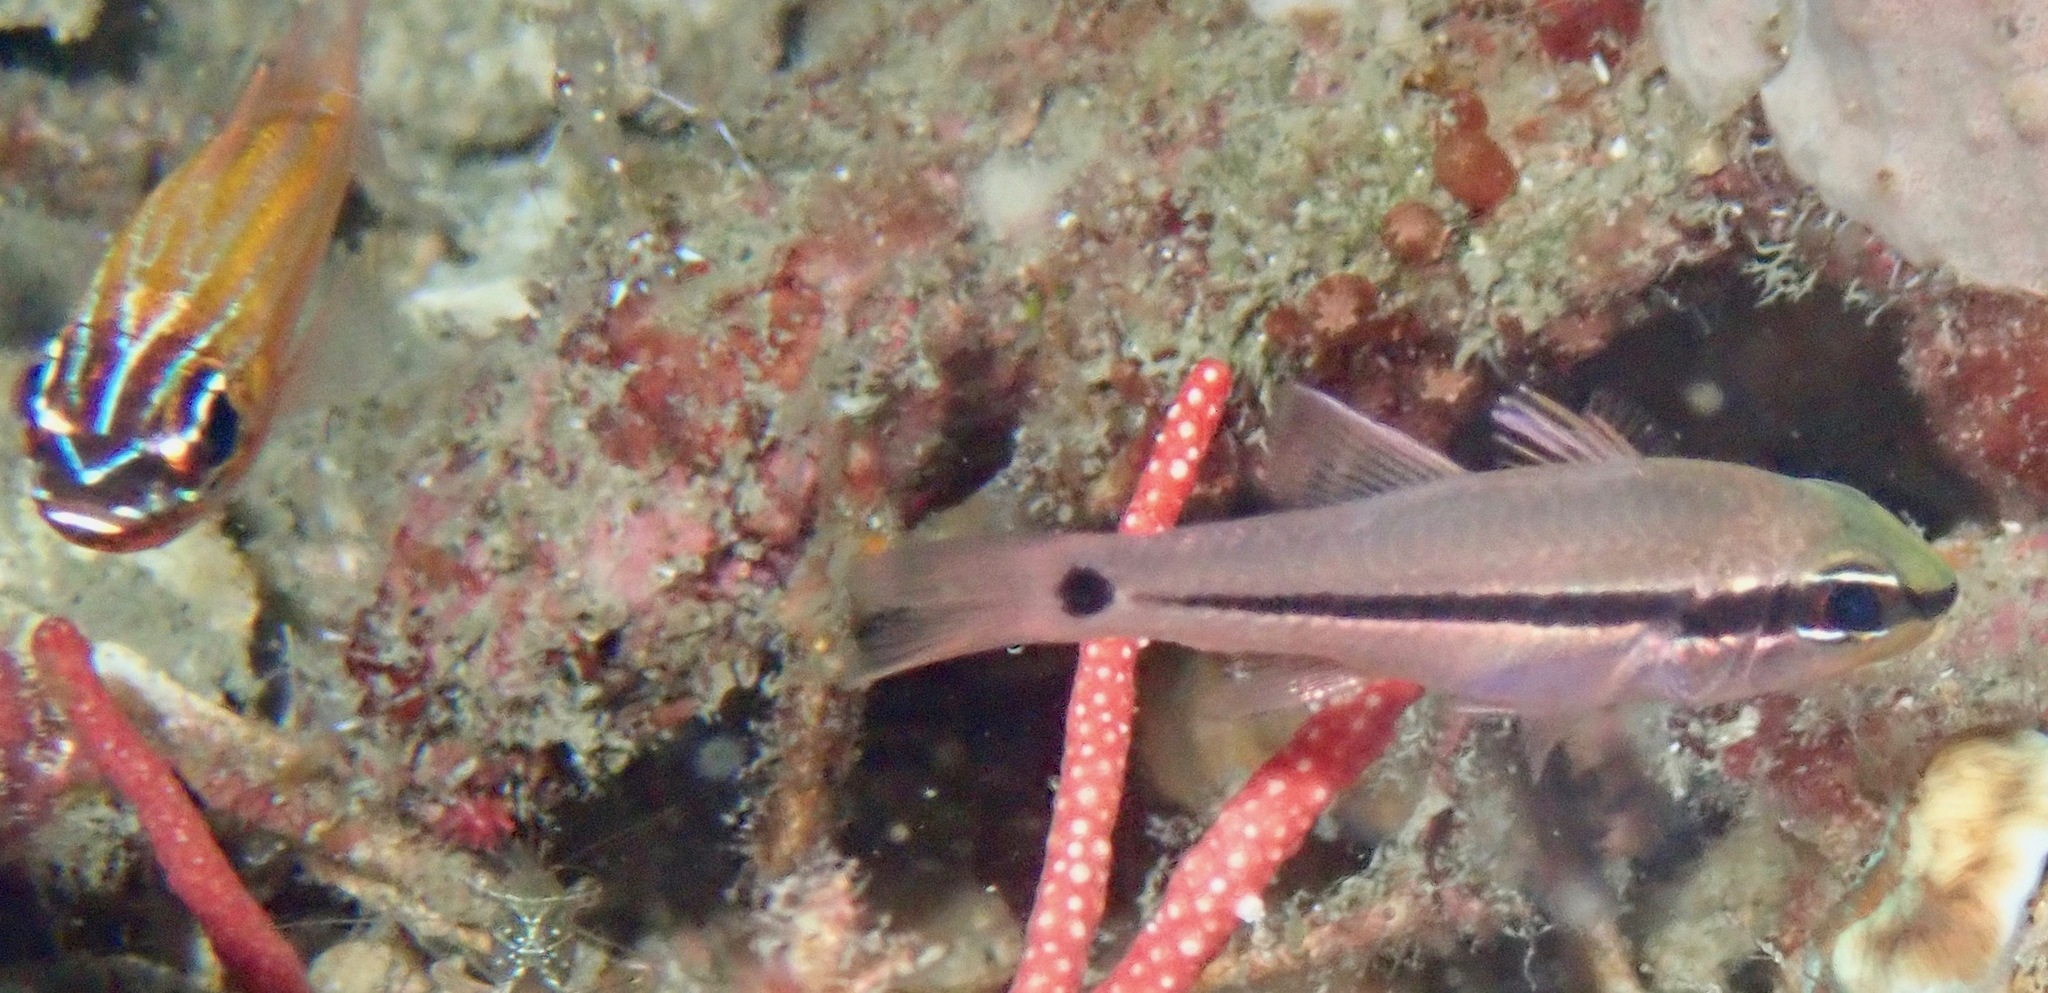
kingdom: Animalia
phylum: Chordata
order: Perciformes
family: Apogonidae
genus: Pristiapogon
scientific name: Pristiapogon fraenatus
